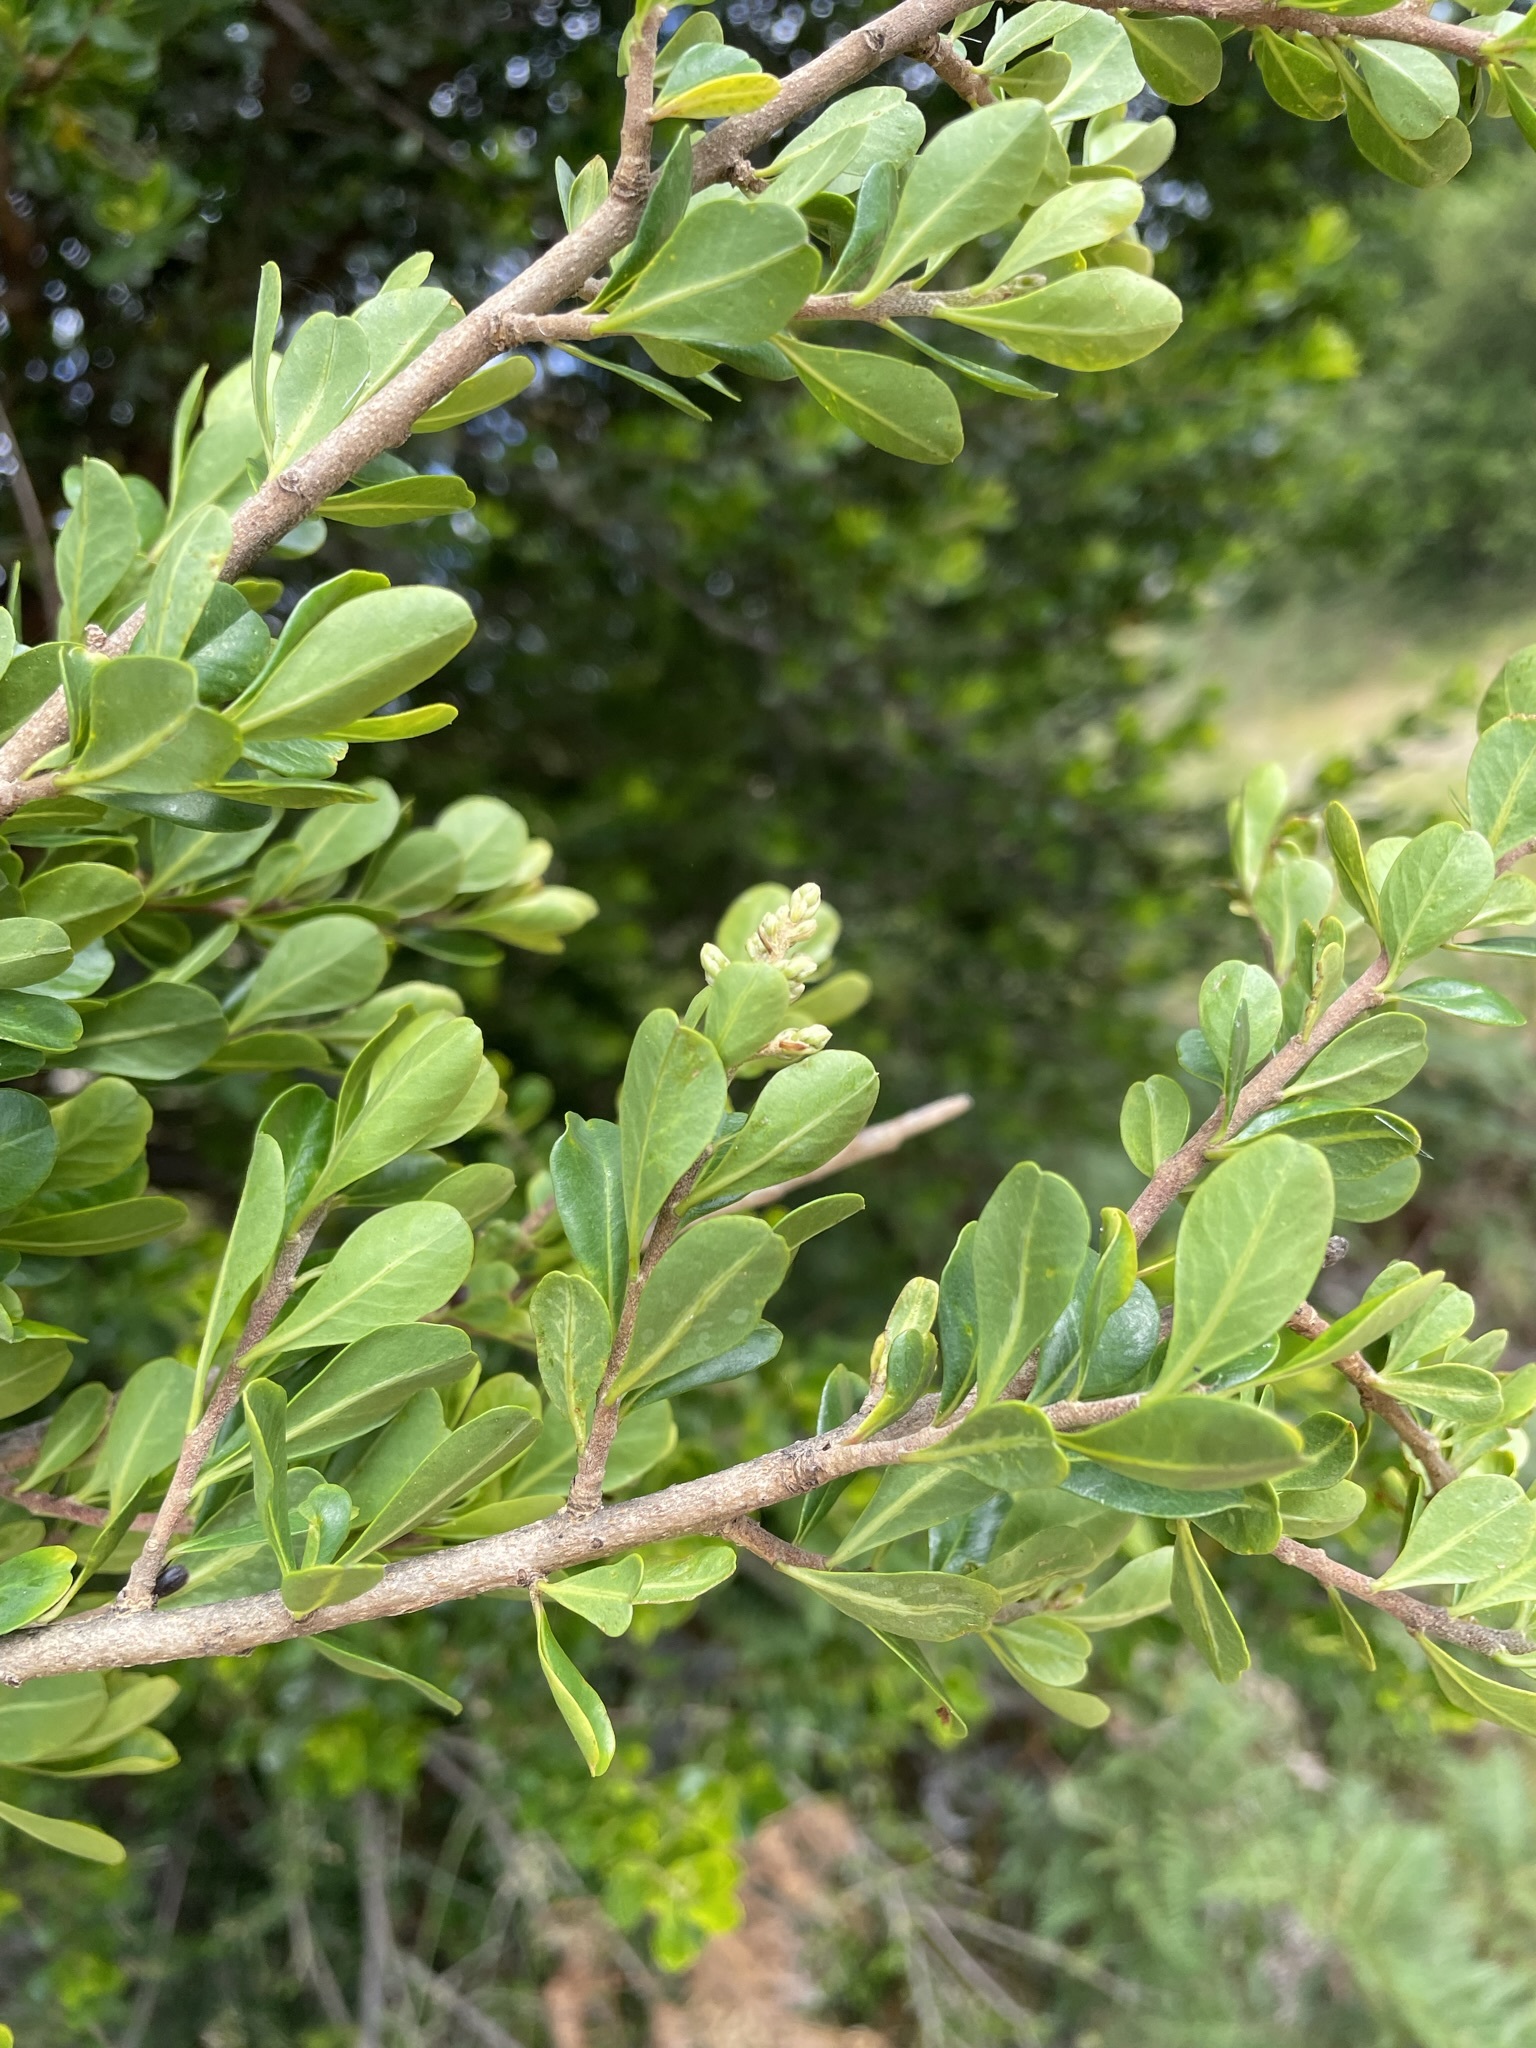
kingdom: Plantae
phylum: Tracheophyta
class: Magnoliopsida
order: Apiales
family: Pittosporaceae
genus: Bursaria
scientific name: Bursaria spinosa
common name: Australian blackthorn
